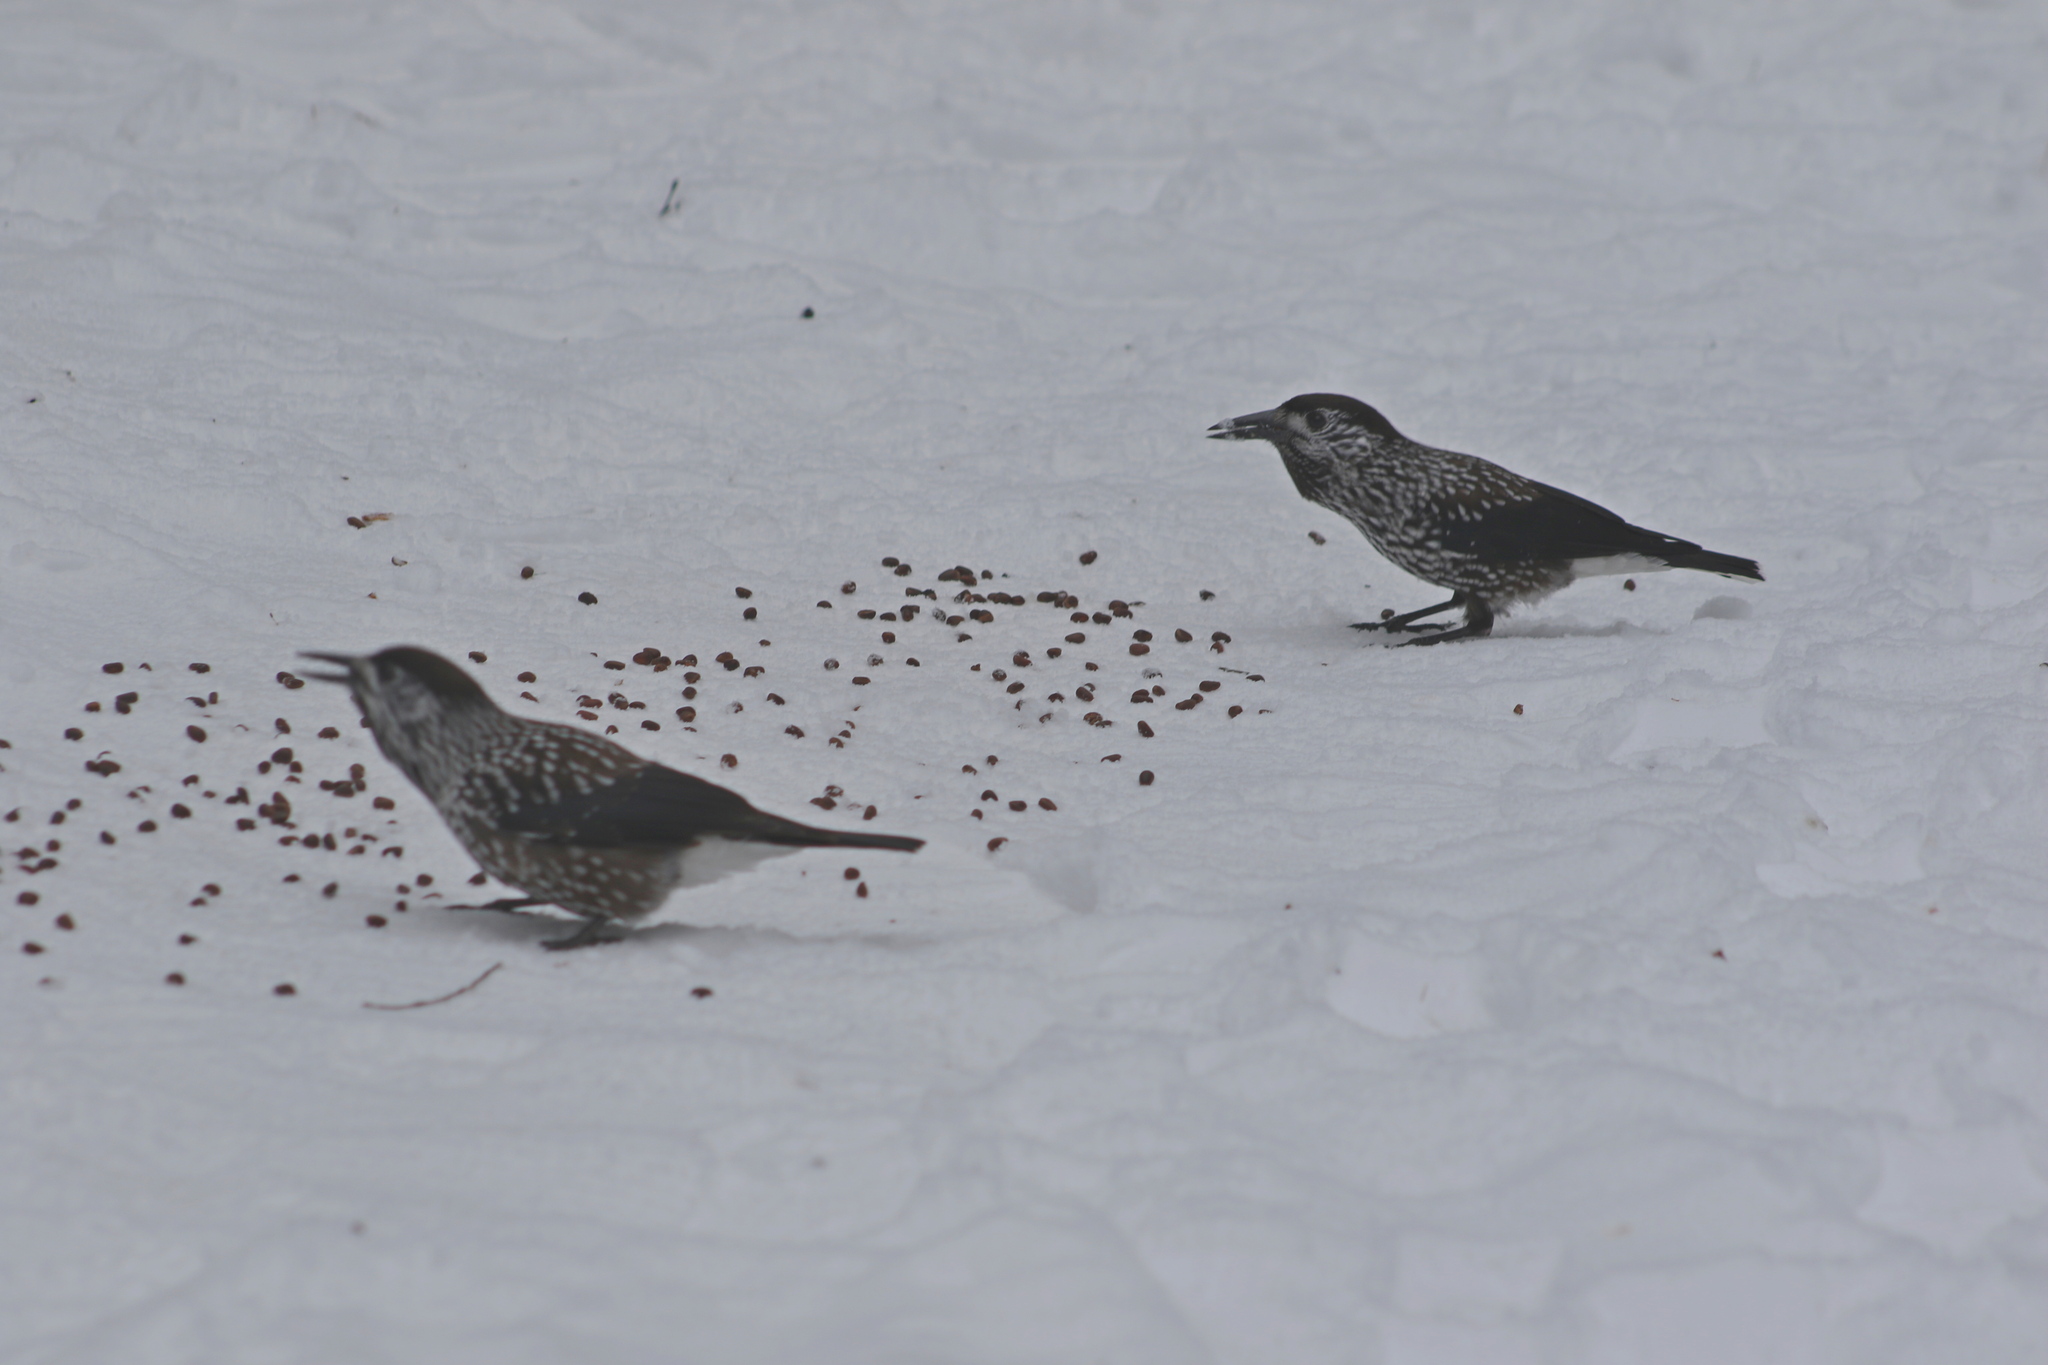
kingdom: Animalia
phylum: Chordata
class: Aves
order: Passeriformes
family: Corvidae
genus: Nucifraga
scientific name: Nucifraga caryocatactes
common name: Spotted nutcracker
